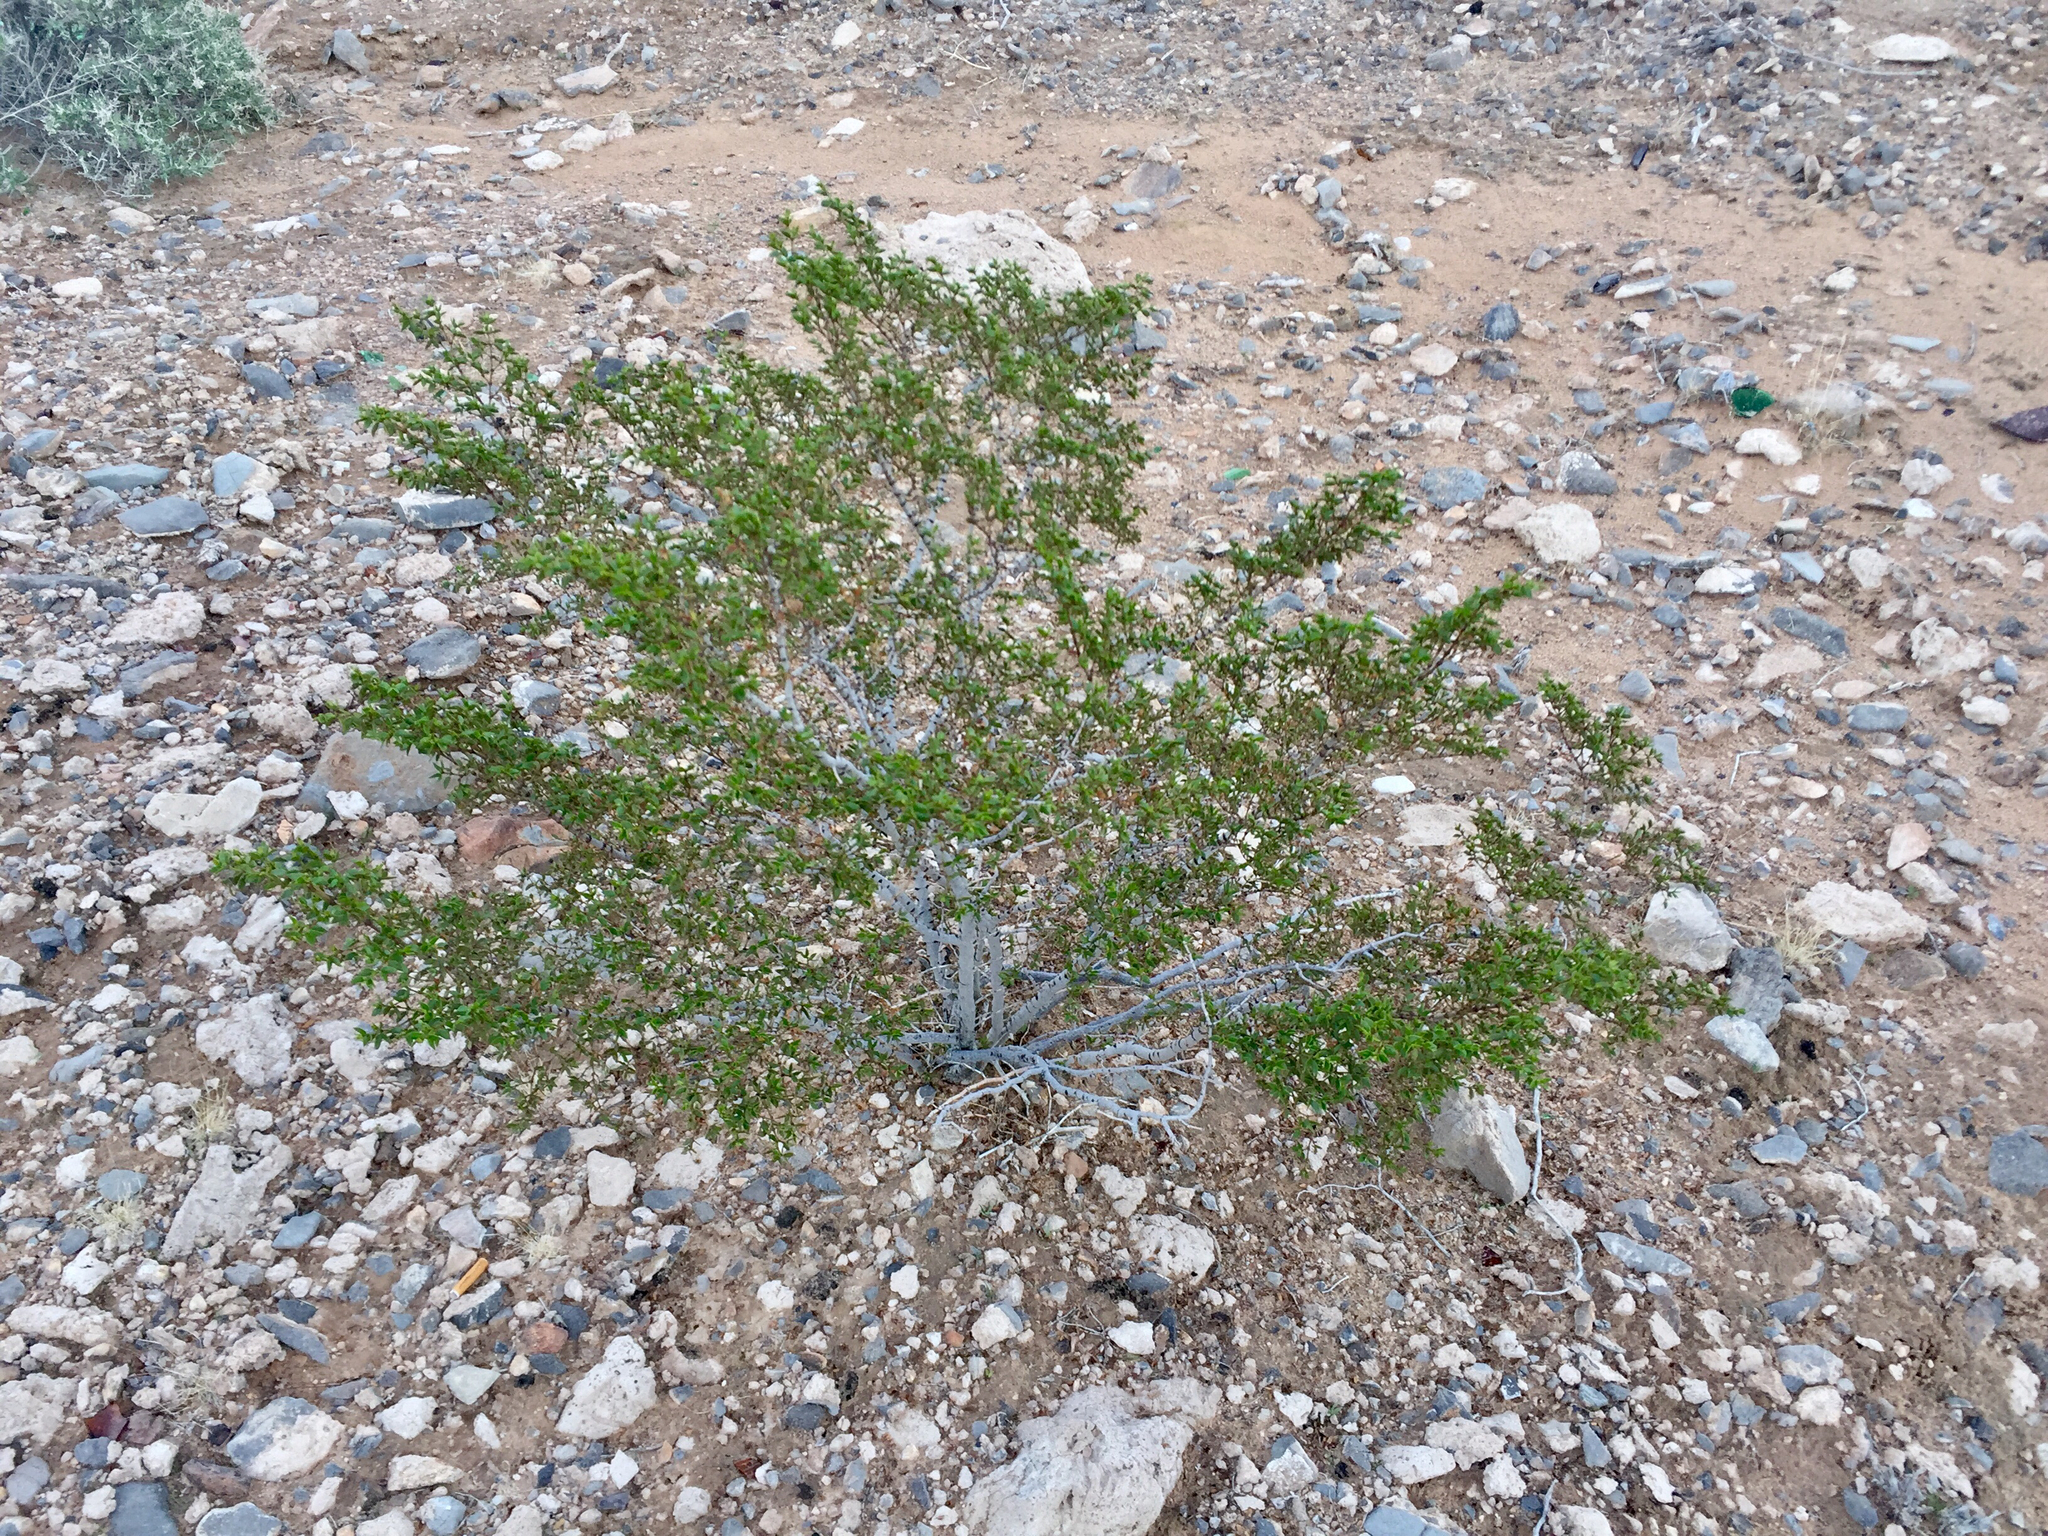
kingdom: Plantae
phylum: Tracheophyta
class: Magnoliopsida
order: Zygophyllales
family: Zygophyllaceae
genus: Larrea
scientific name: Larrea tridentata
